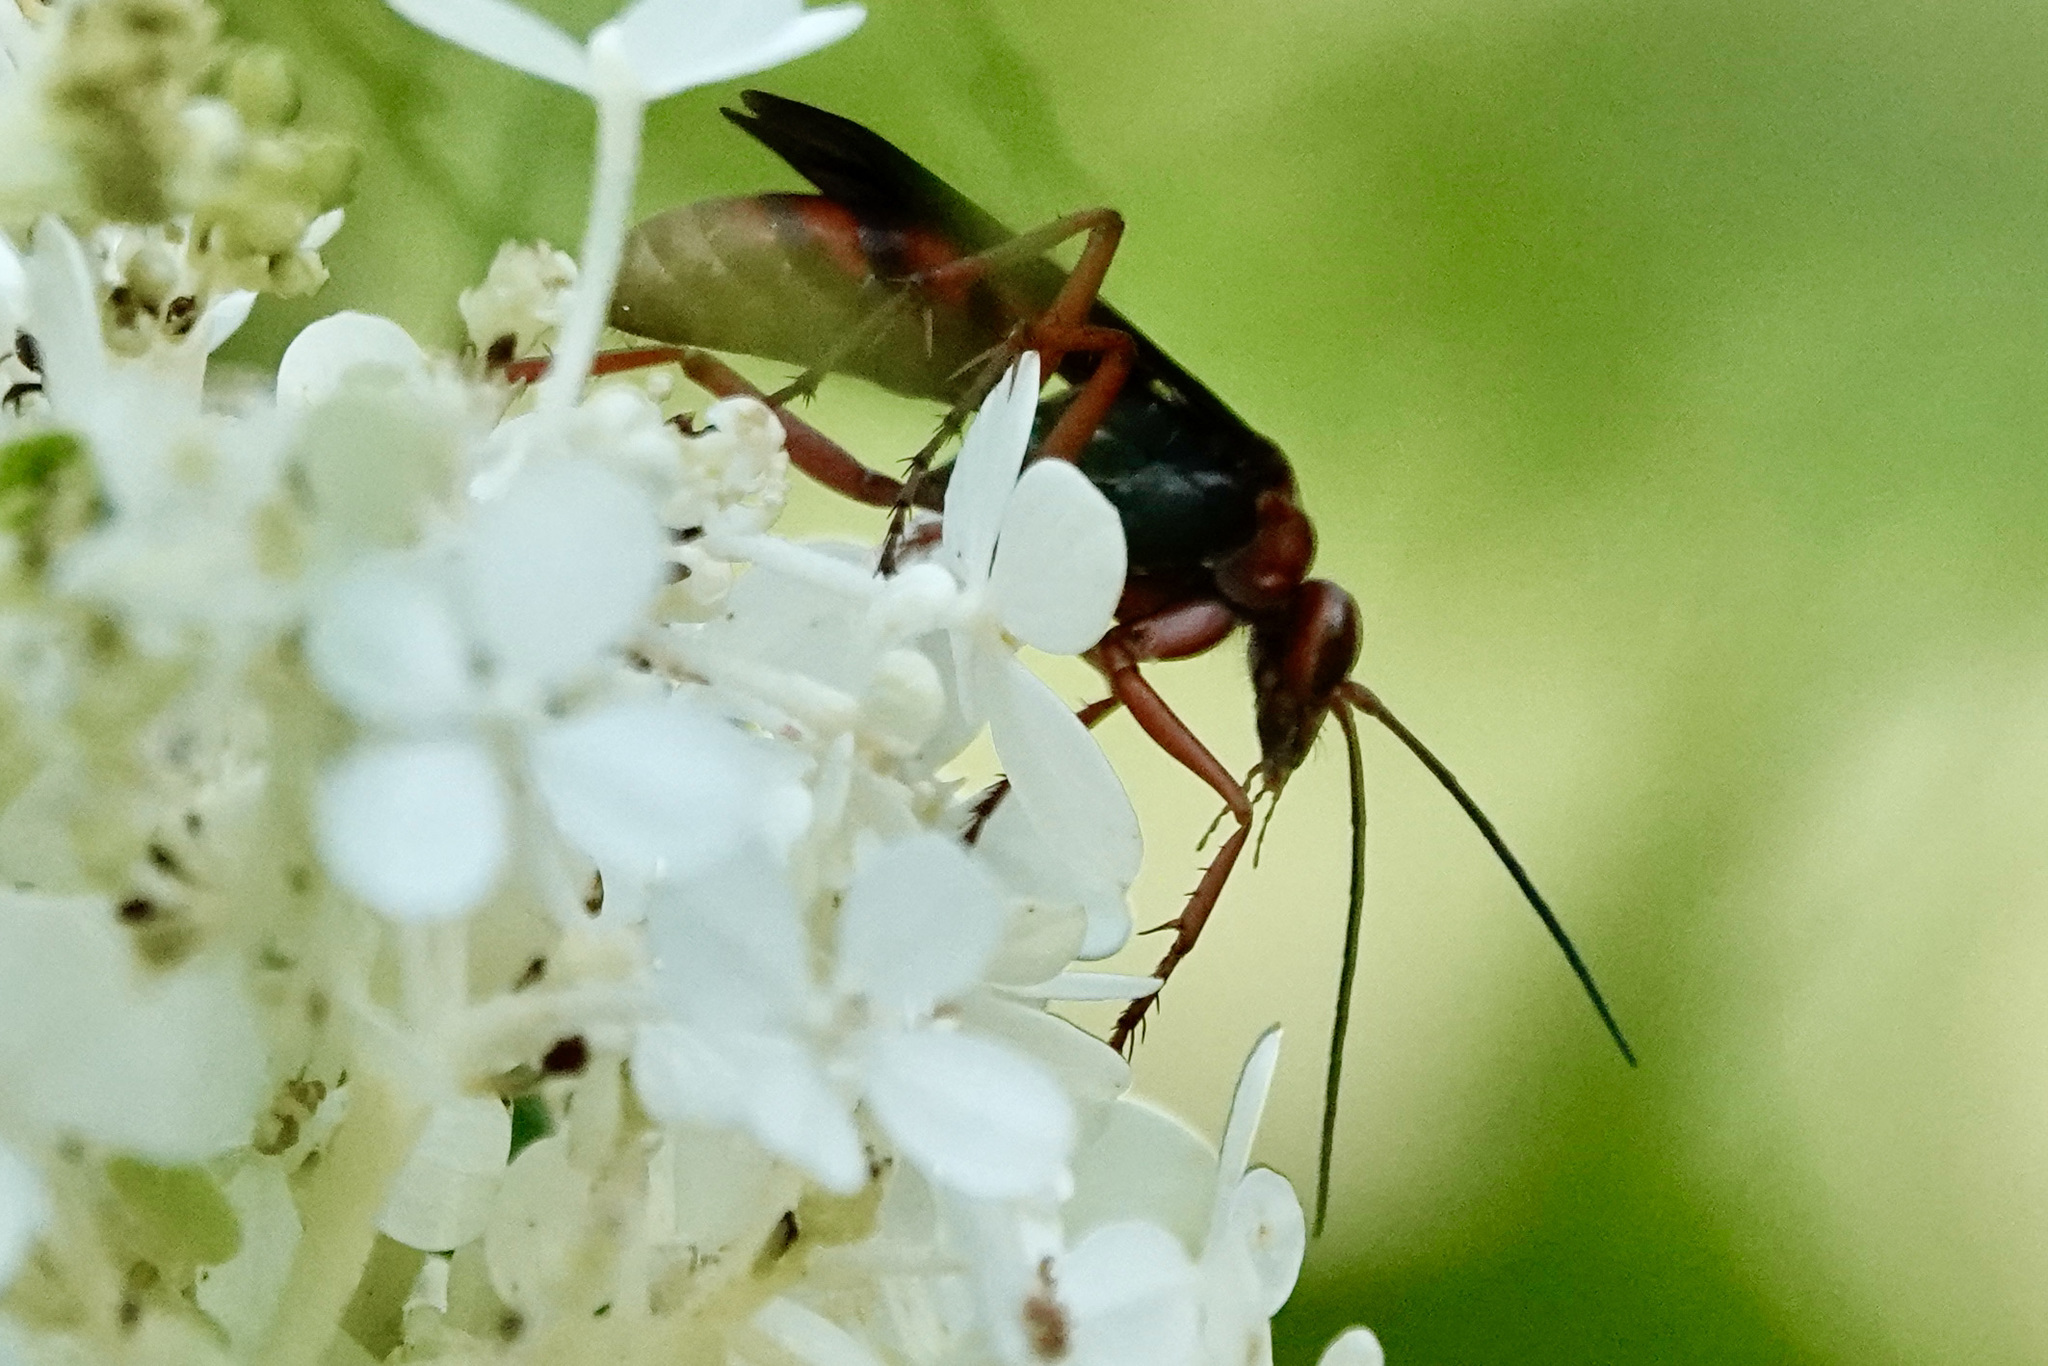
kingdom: Animalia
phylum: Arthropoda
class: Insecta
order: Hymenoptera
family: Pompilidae
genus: Tachypompilus
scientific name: Tachypompilus ferrugineus
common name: Rusty spider wasp
